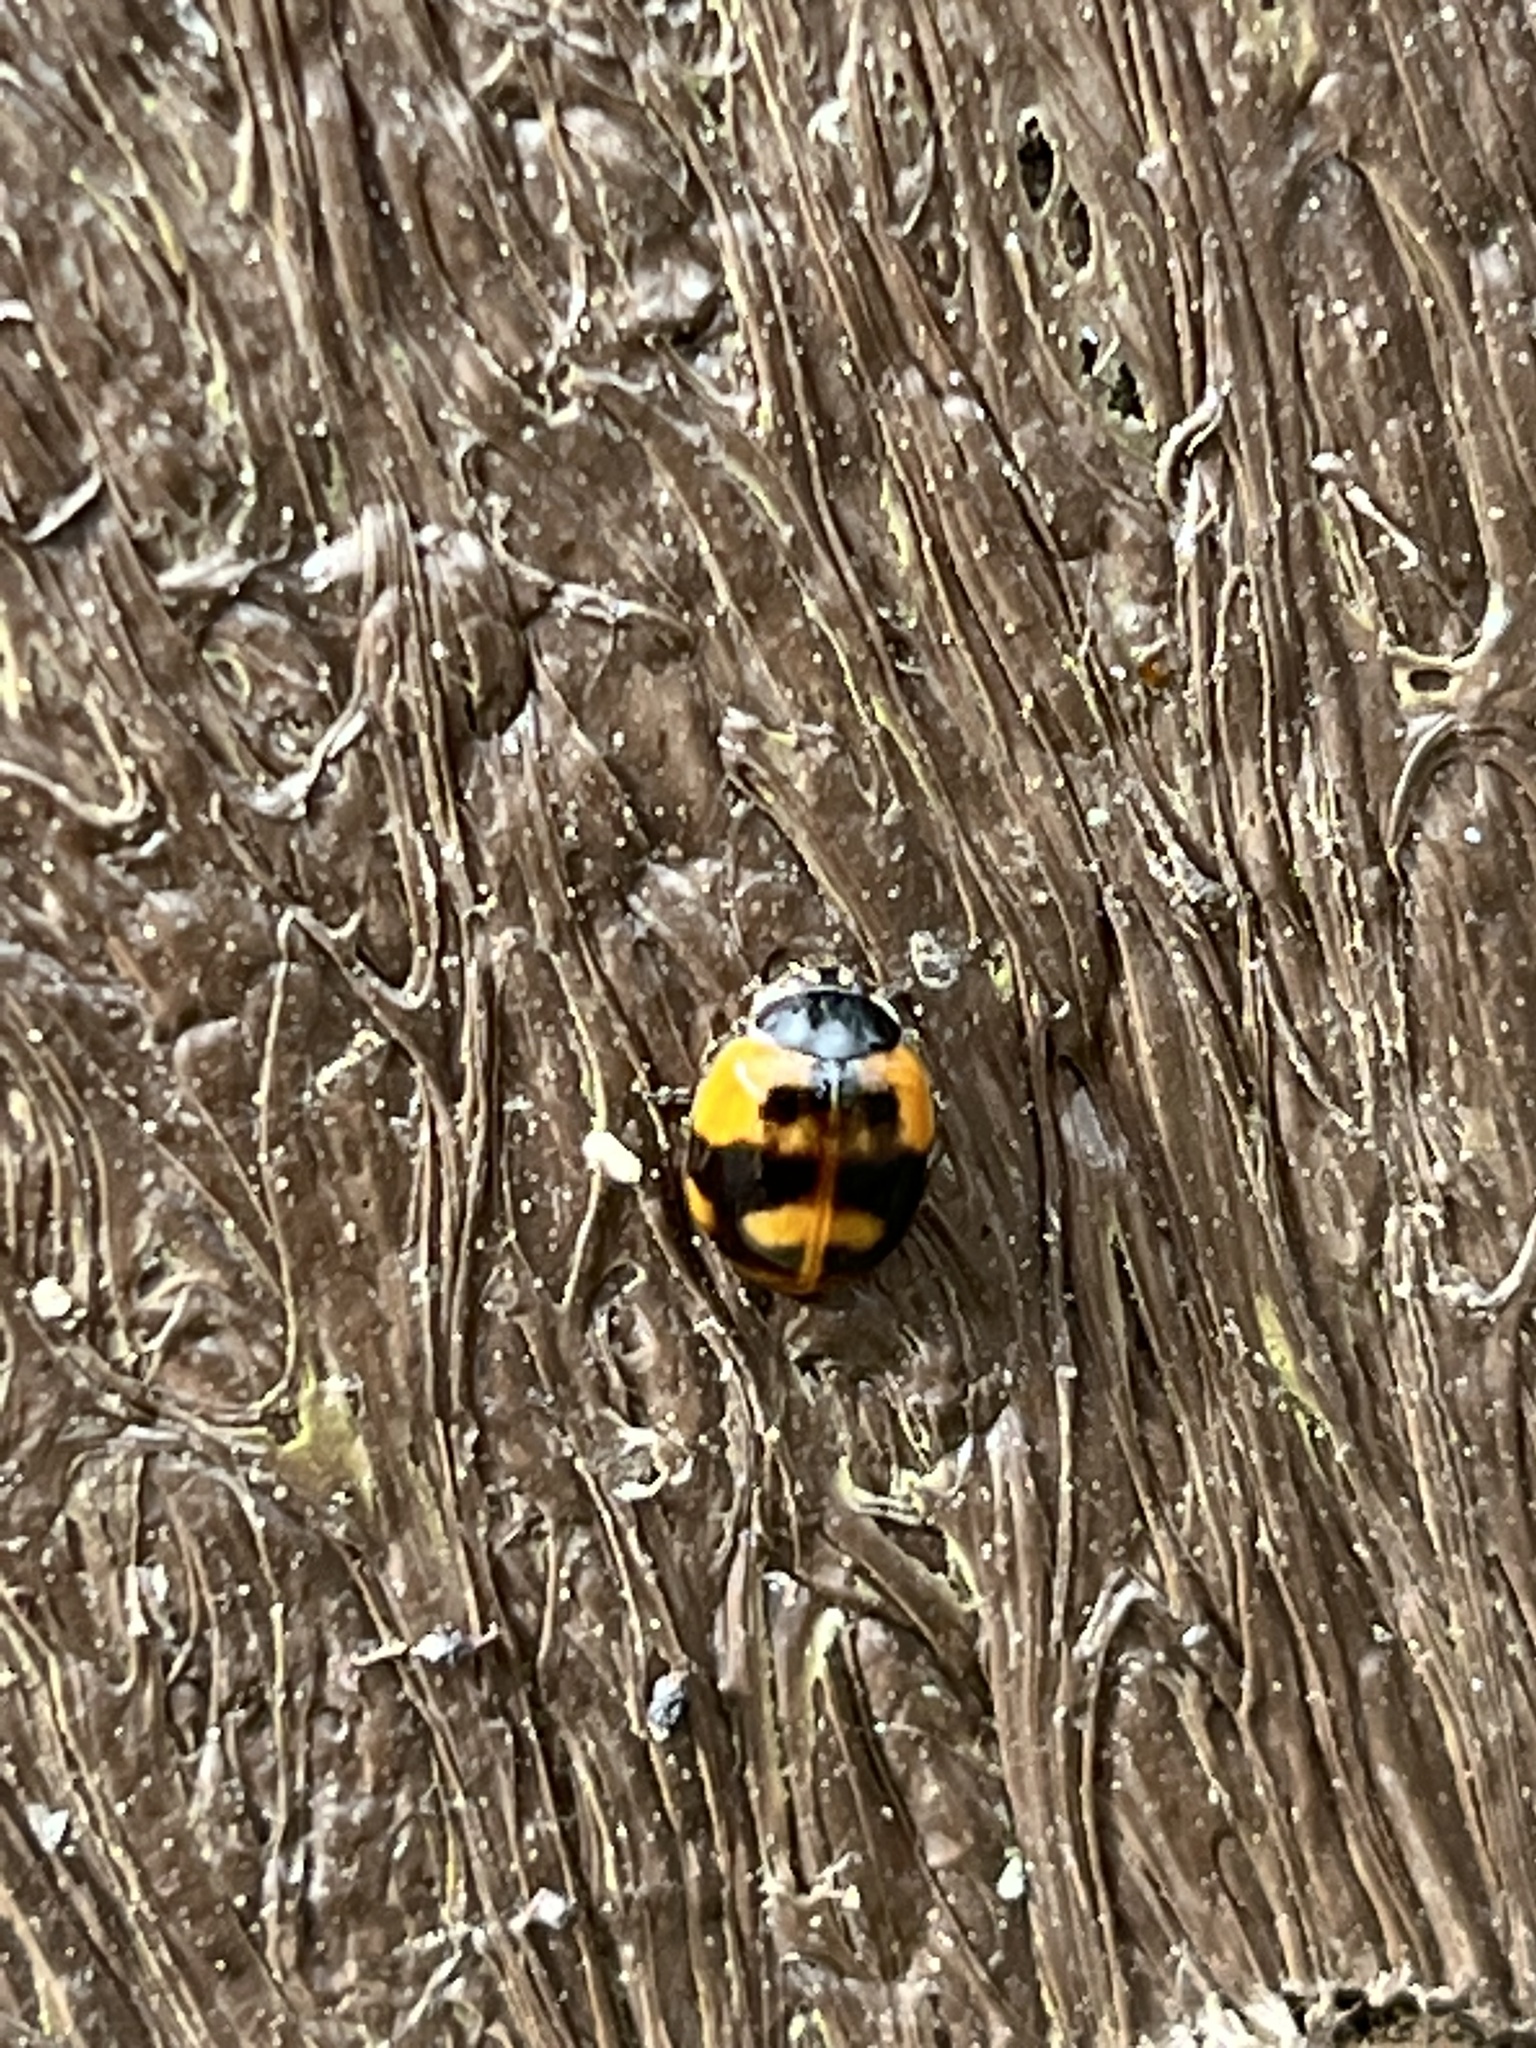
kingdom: Animalia
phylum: Arthropoda
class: Insecta
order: Coleoptera
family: Coccinellidae
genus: Adalia
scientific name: Adalia bipunctata
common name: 2-spot ladybird
